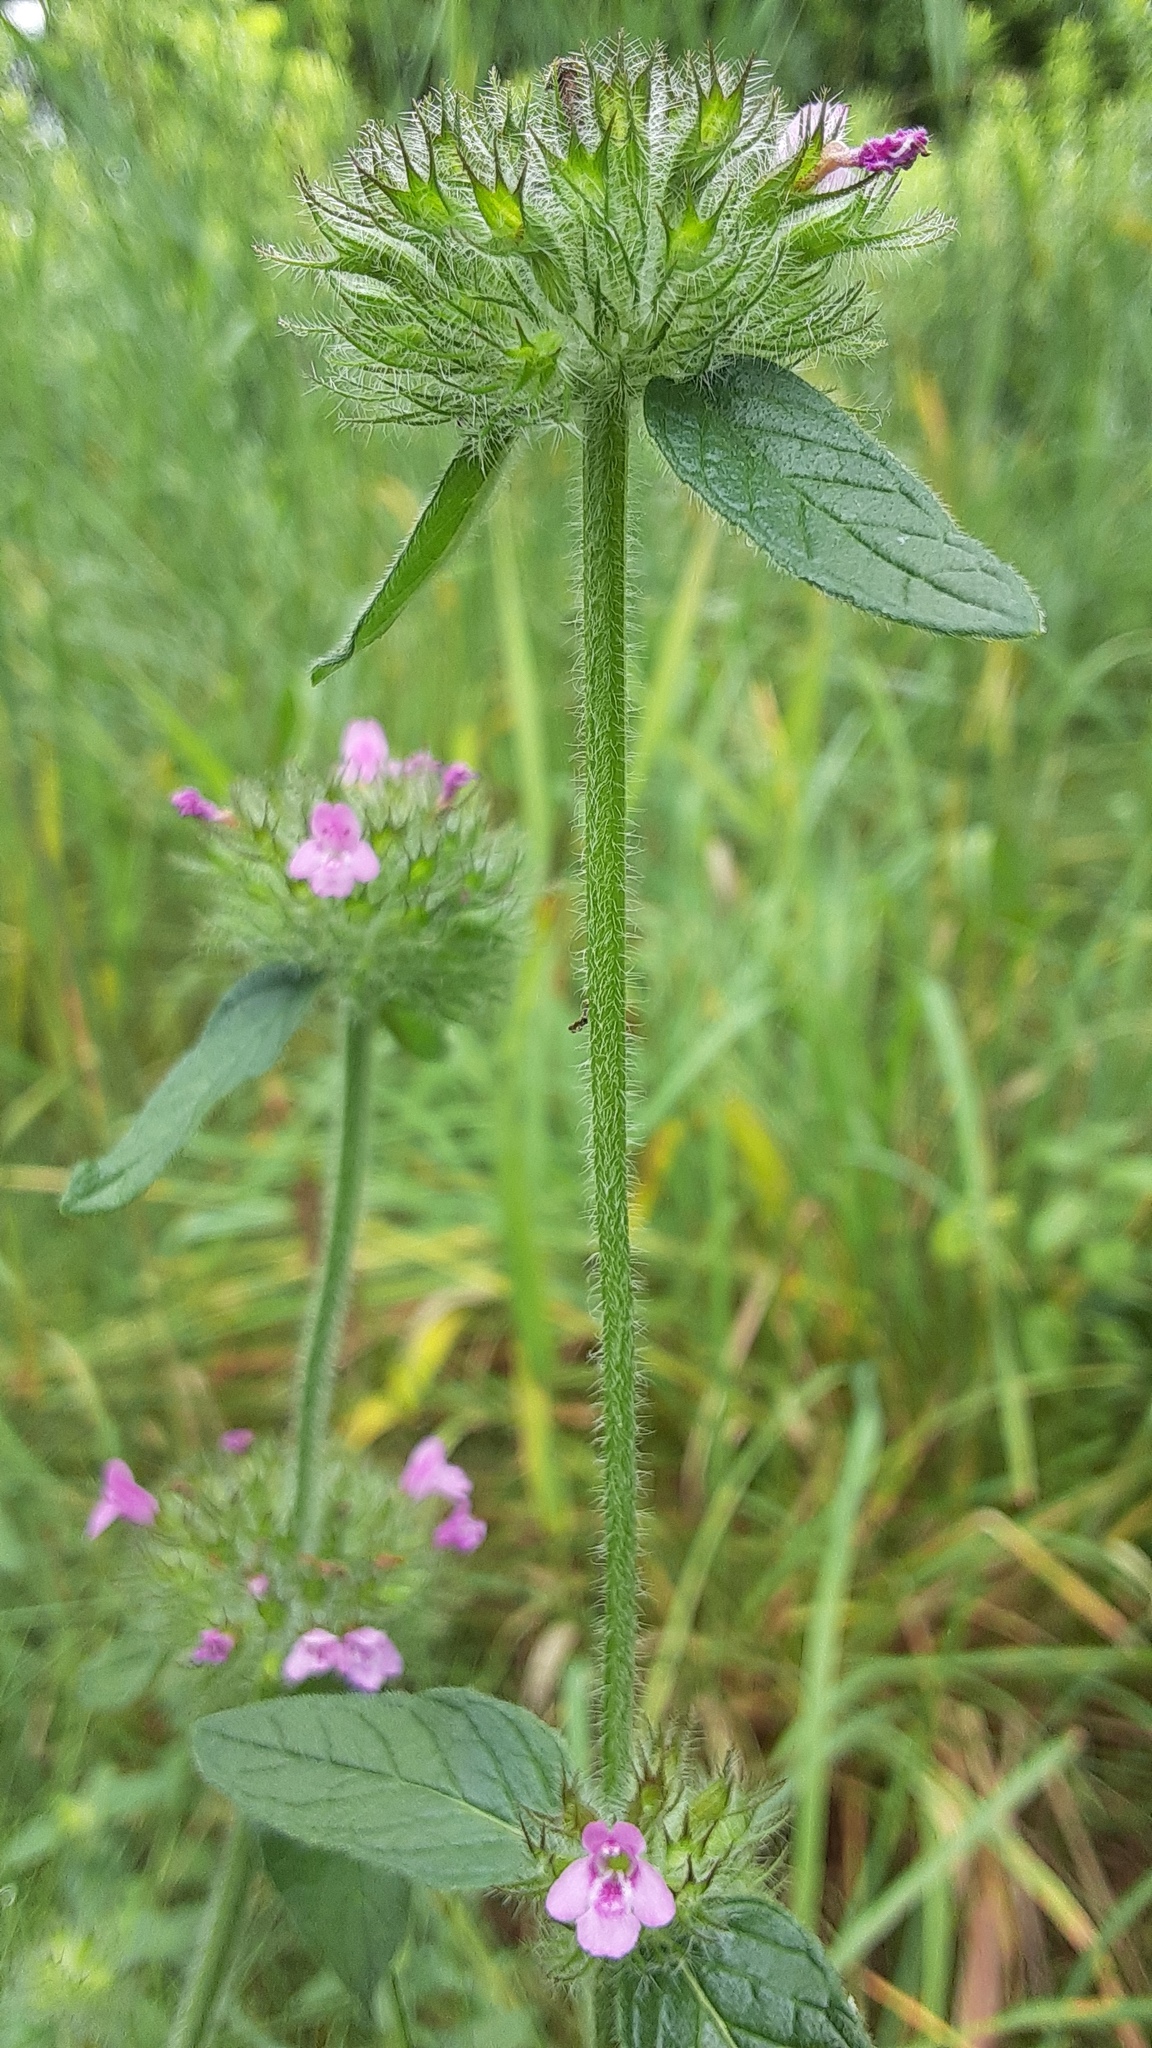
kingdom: Plantae
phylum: Tracheophyta
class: Magnoliopsida
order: Lamiales
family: Lamiaceae
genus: Clinopodium
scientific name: Clinopodium vulgare
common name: Wild basil
